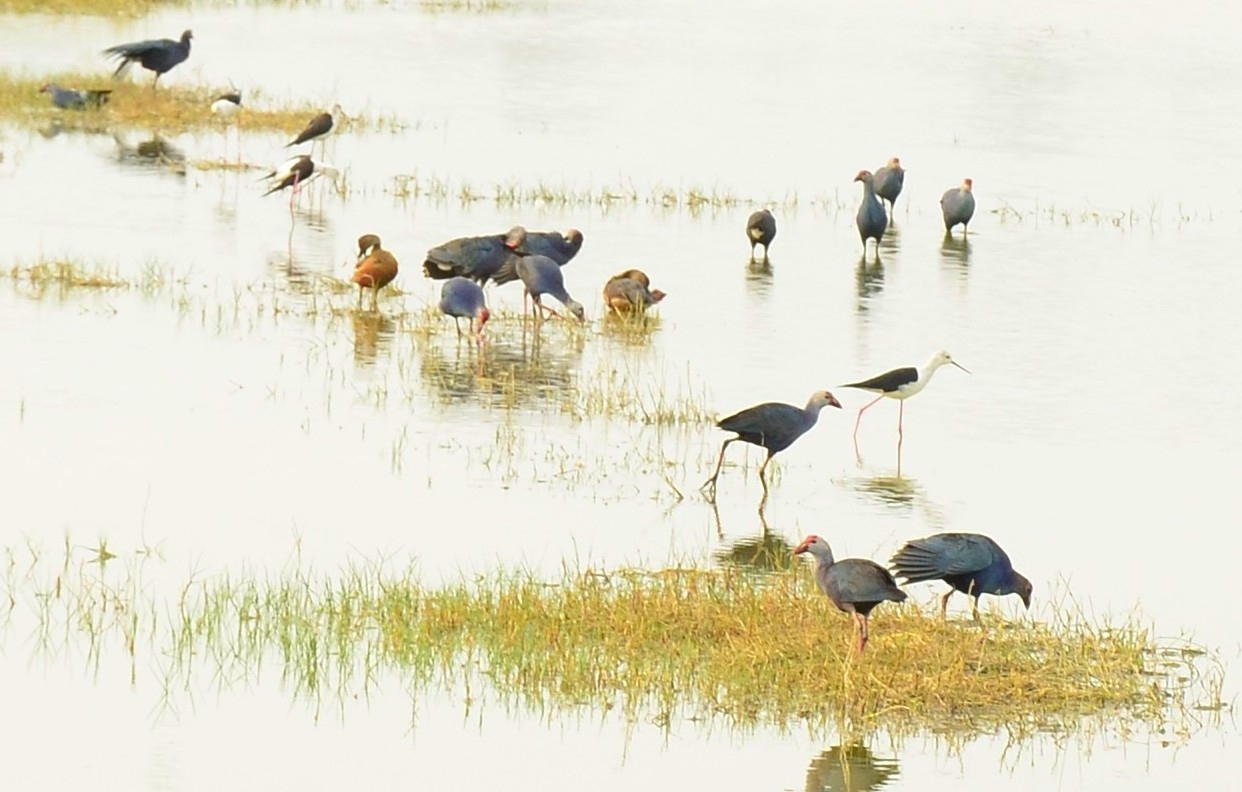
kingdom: Animalia
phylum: Chordata
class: Aves
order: Gruiformes
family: Rallidae
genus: Porphyrio
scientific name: Porphyrio porphyrio
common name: Purple swamphen
